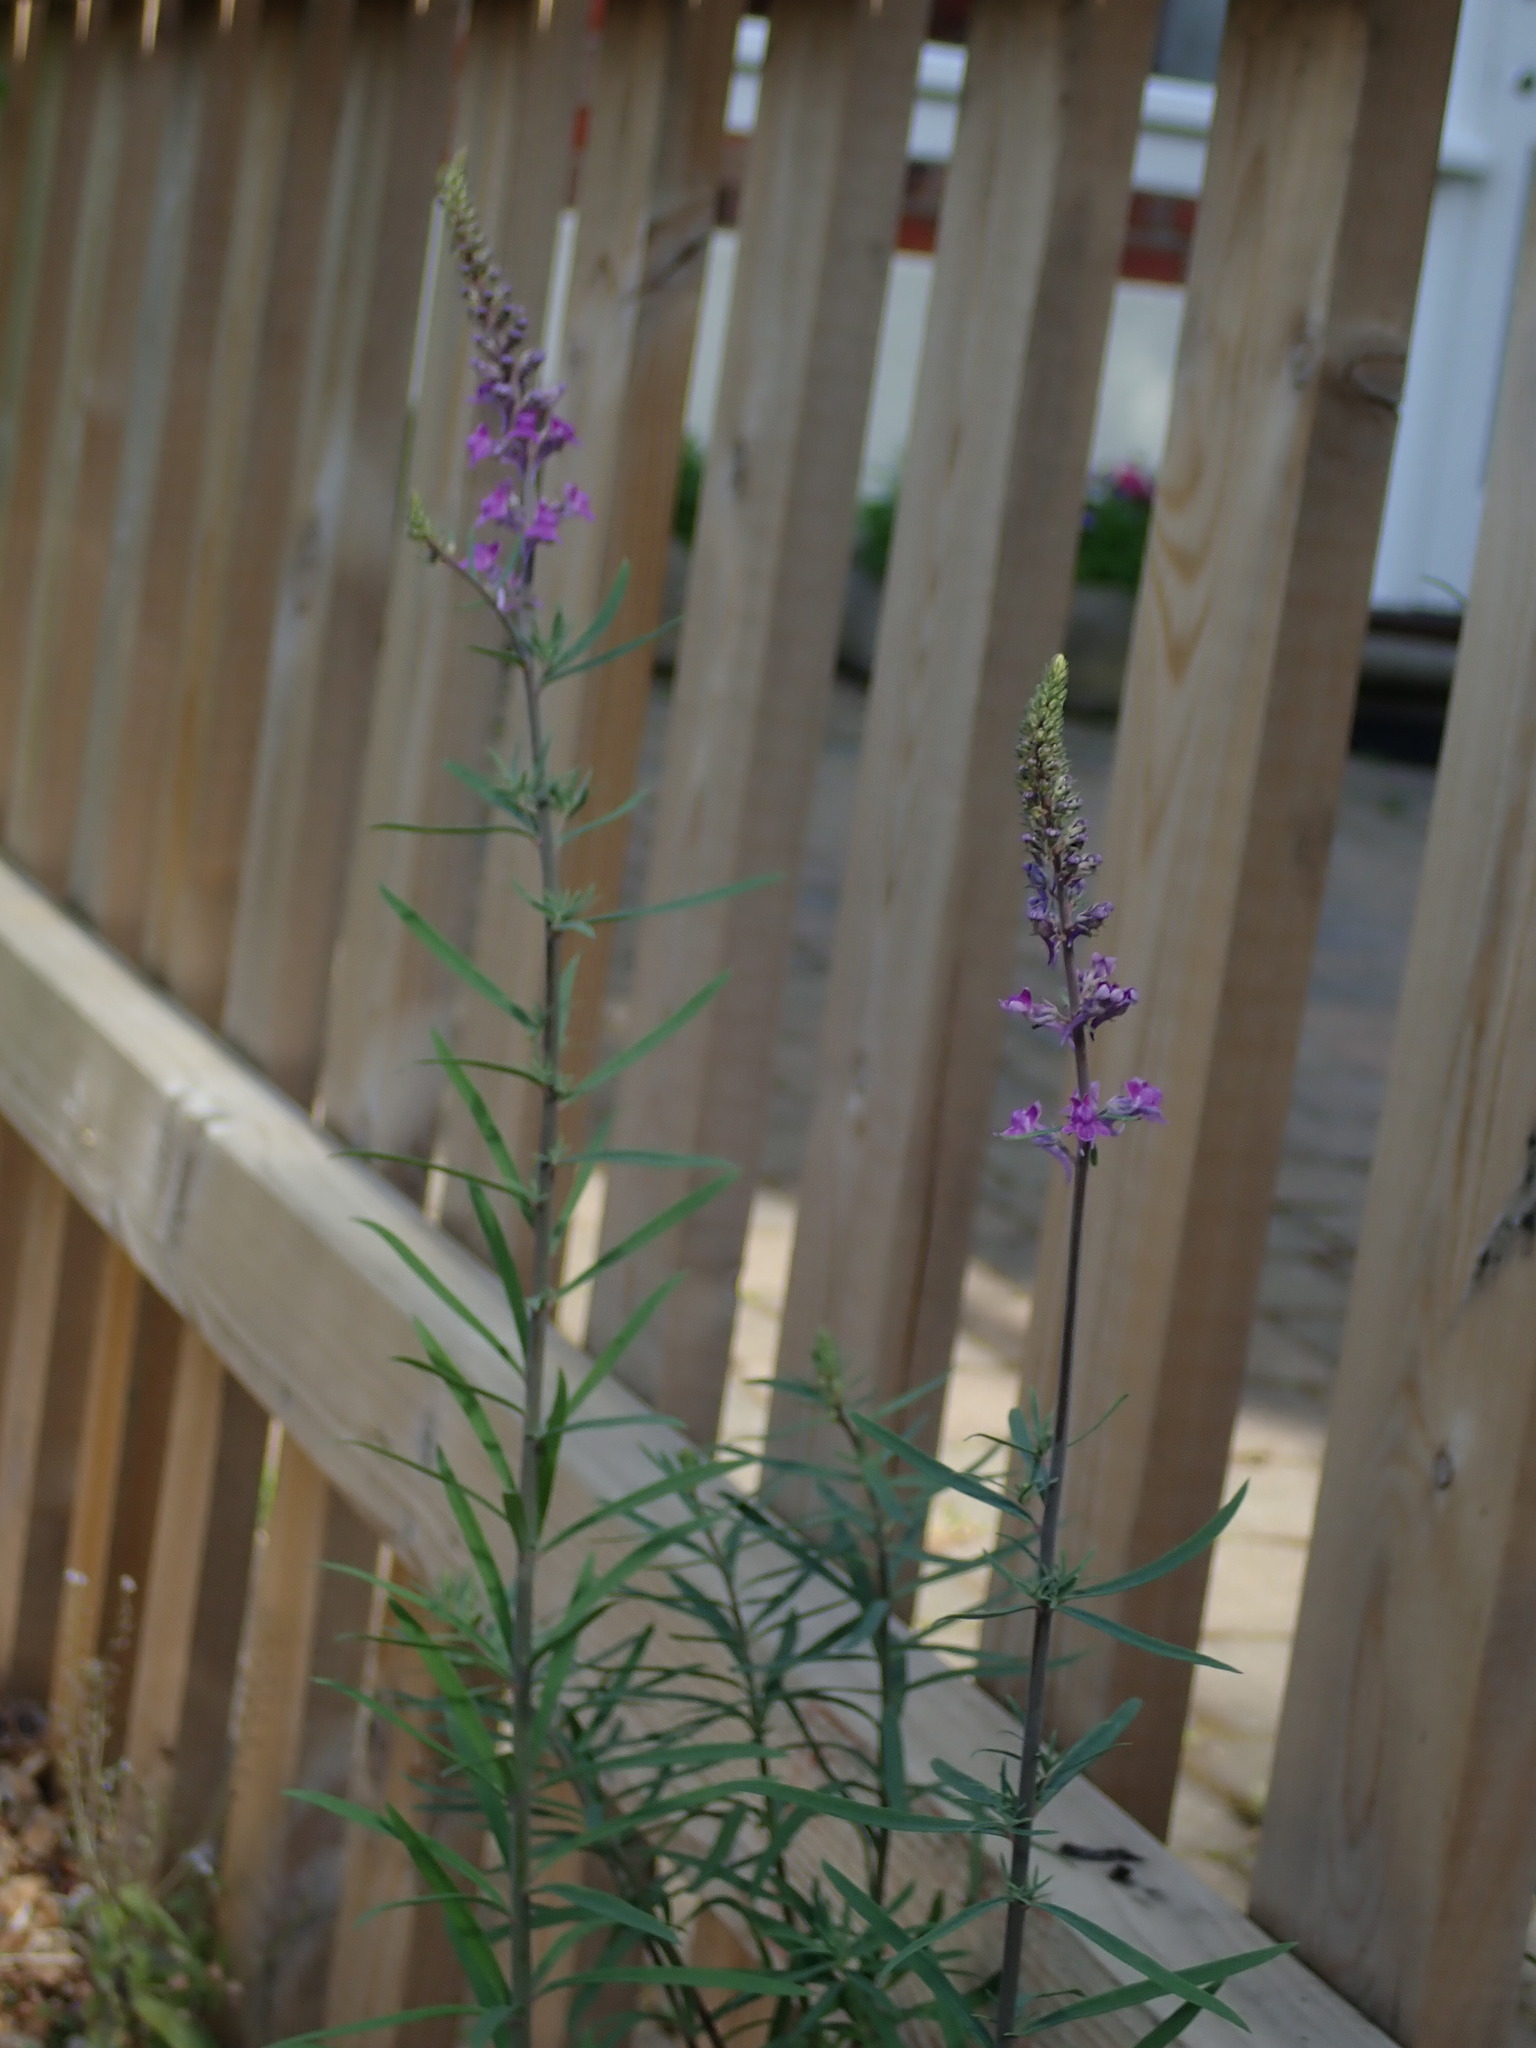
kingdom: Plantae
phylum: Tracheophyta
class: Magnoliopsida
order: Lamiales
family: Plantaginaceae
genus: Linaria
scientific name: Linaria purpurea
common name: Purple toadflax
